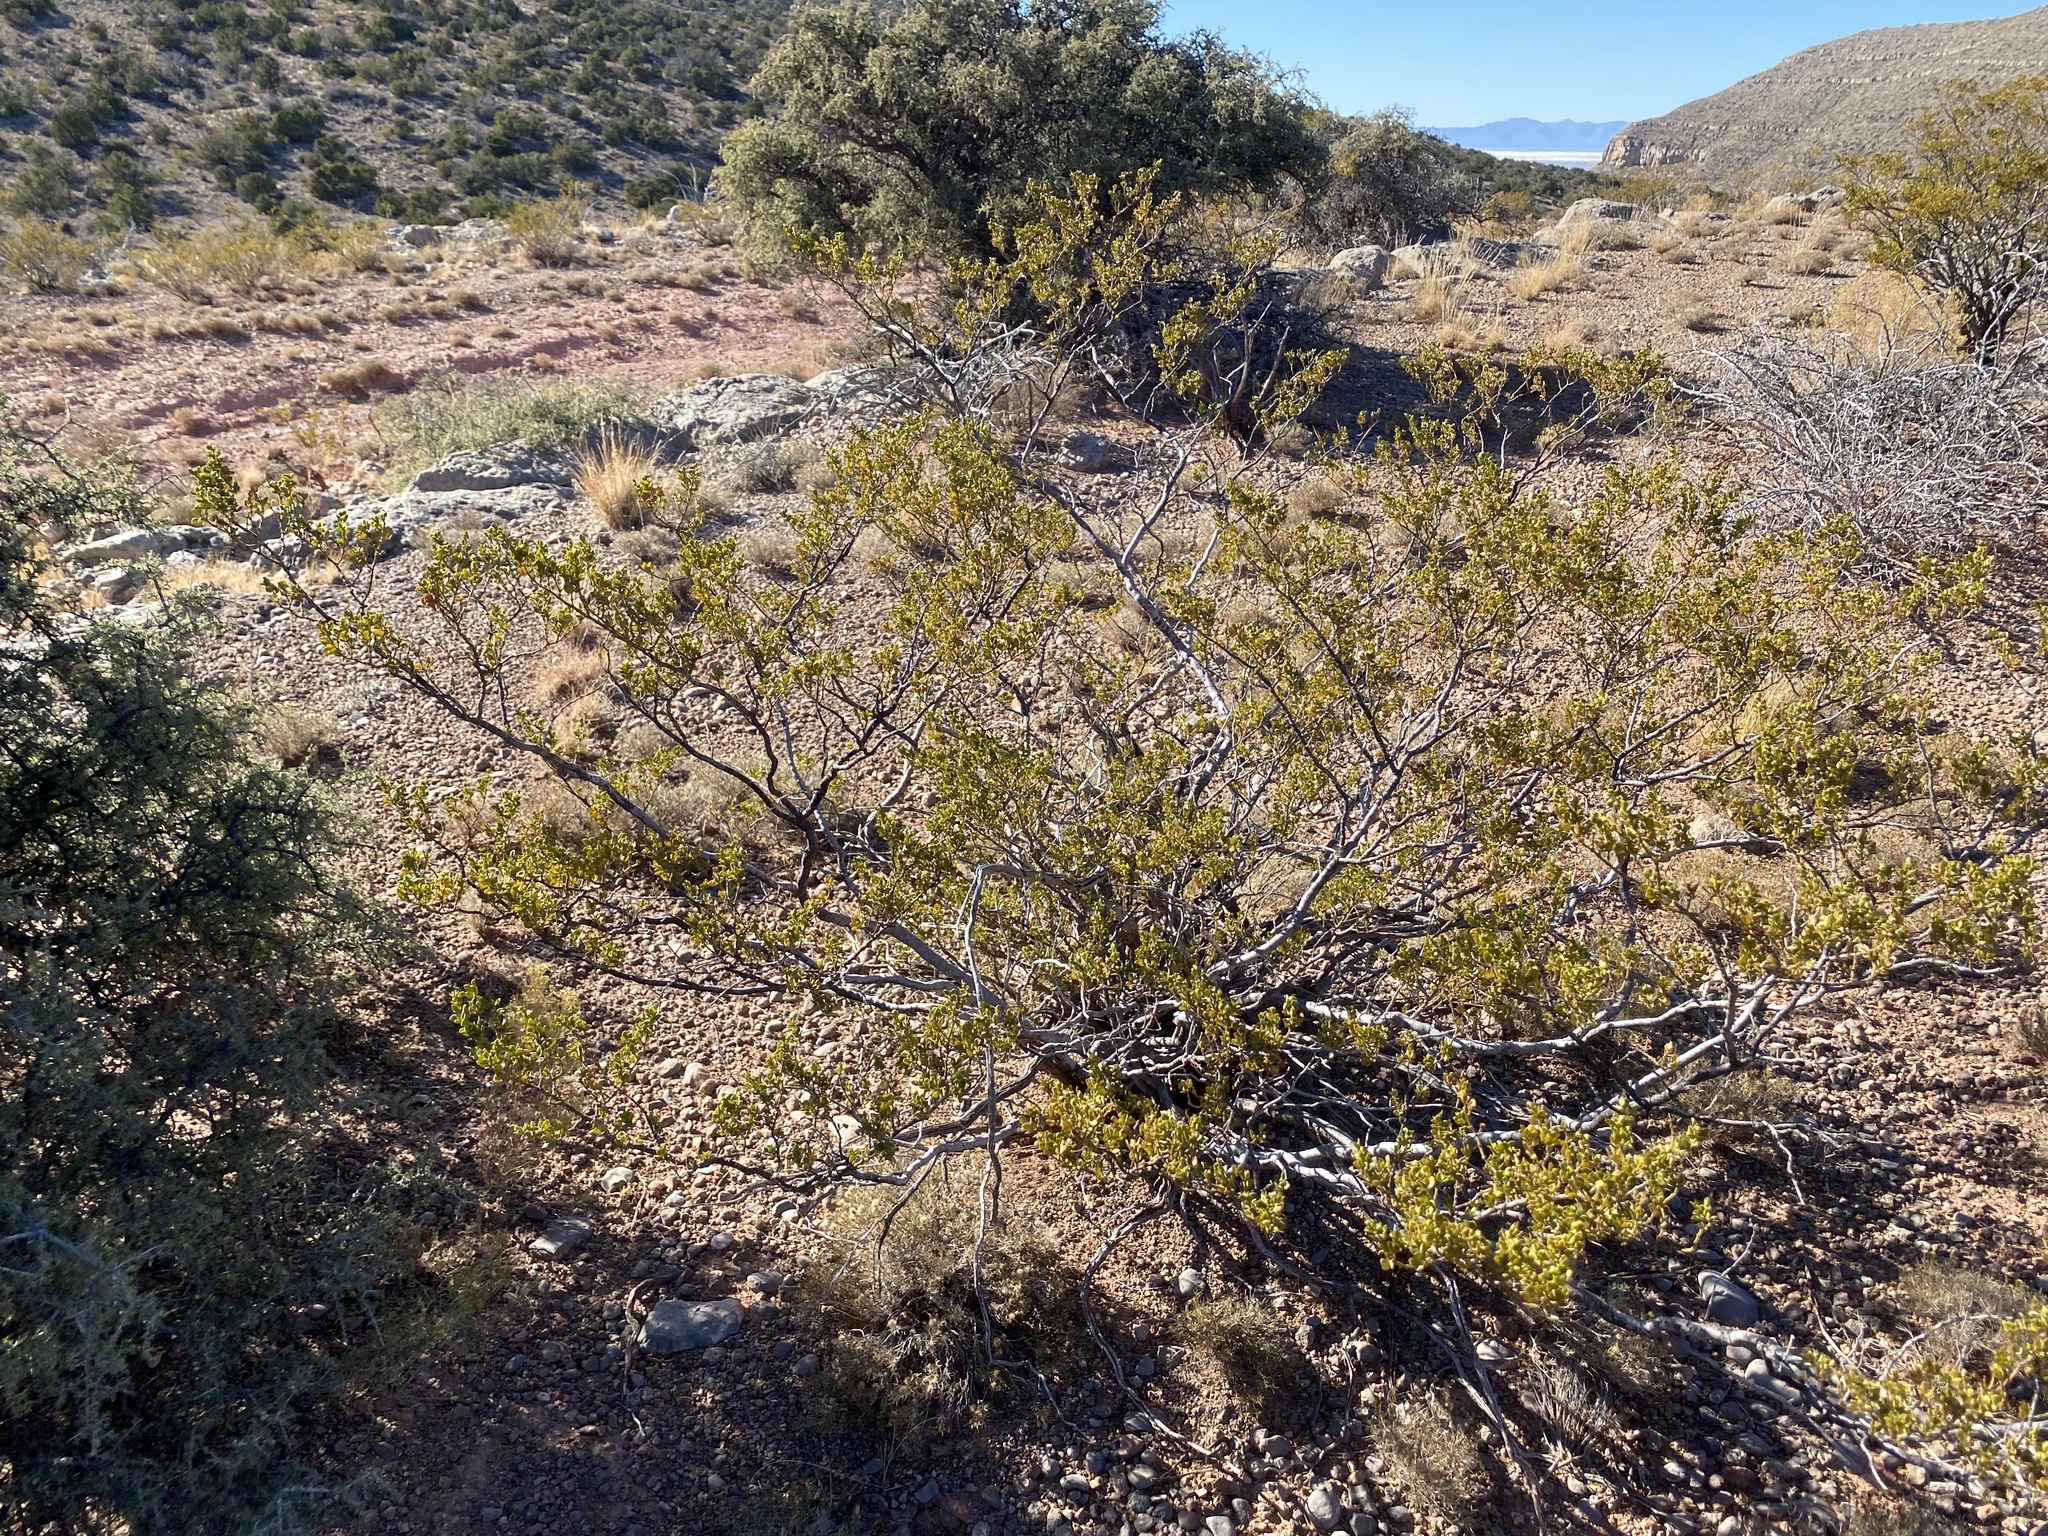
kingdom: Plantae
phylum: Tracheophyta
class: Magnoliopsida
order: Zygophyllales
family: Zygophyllaceae
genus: Larrea
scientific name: Larrea tridentata
